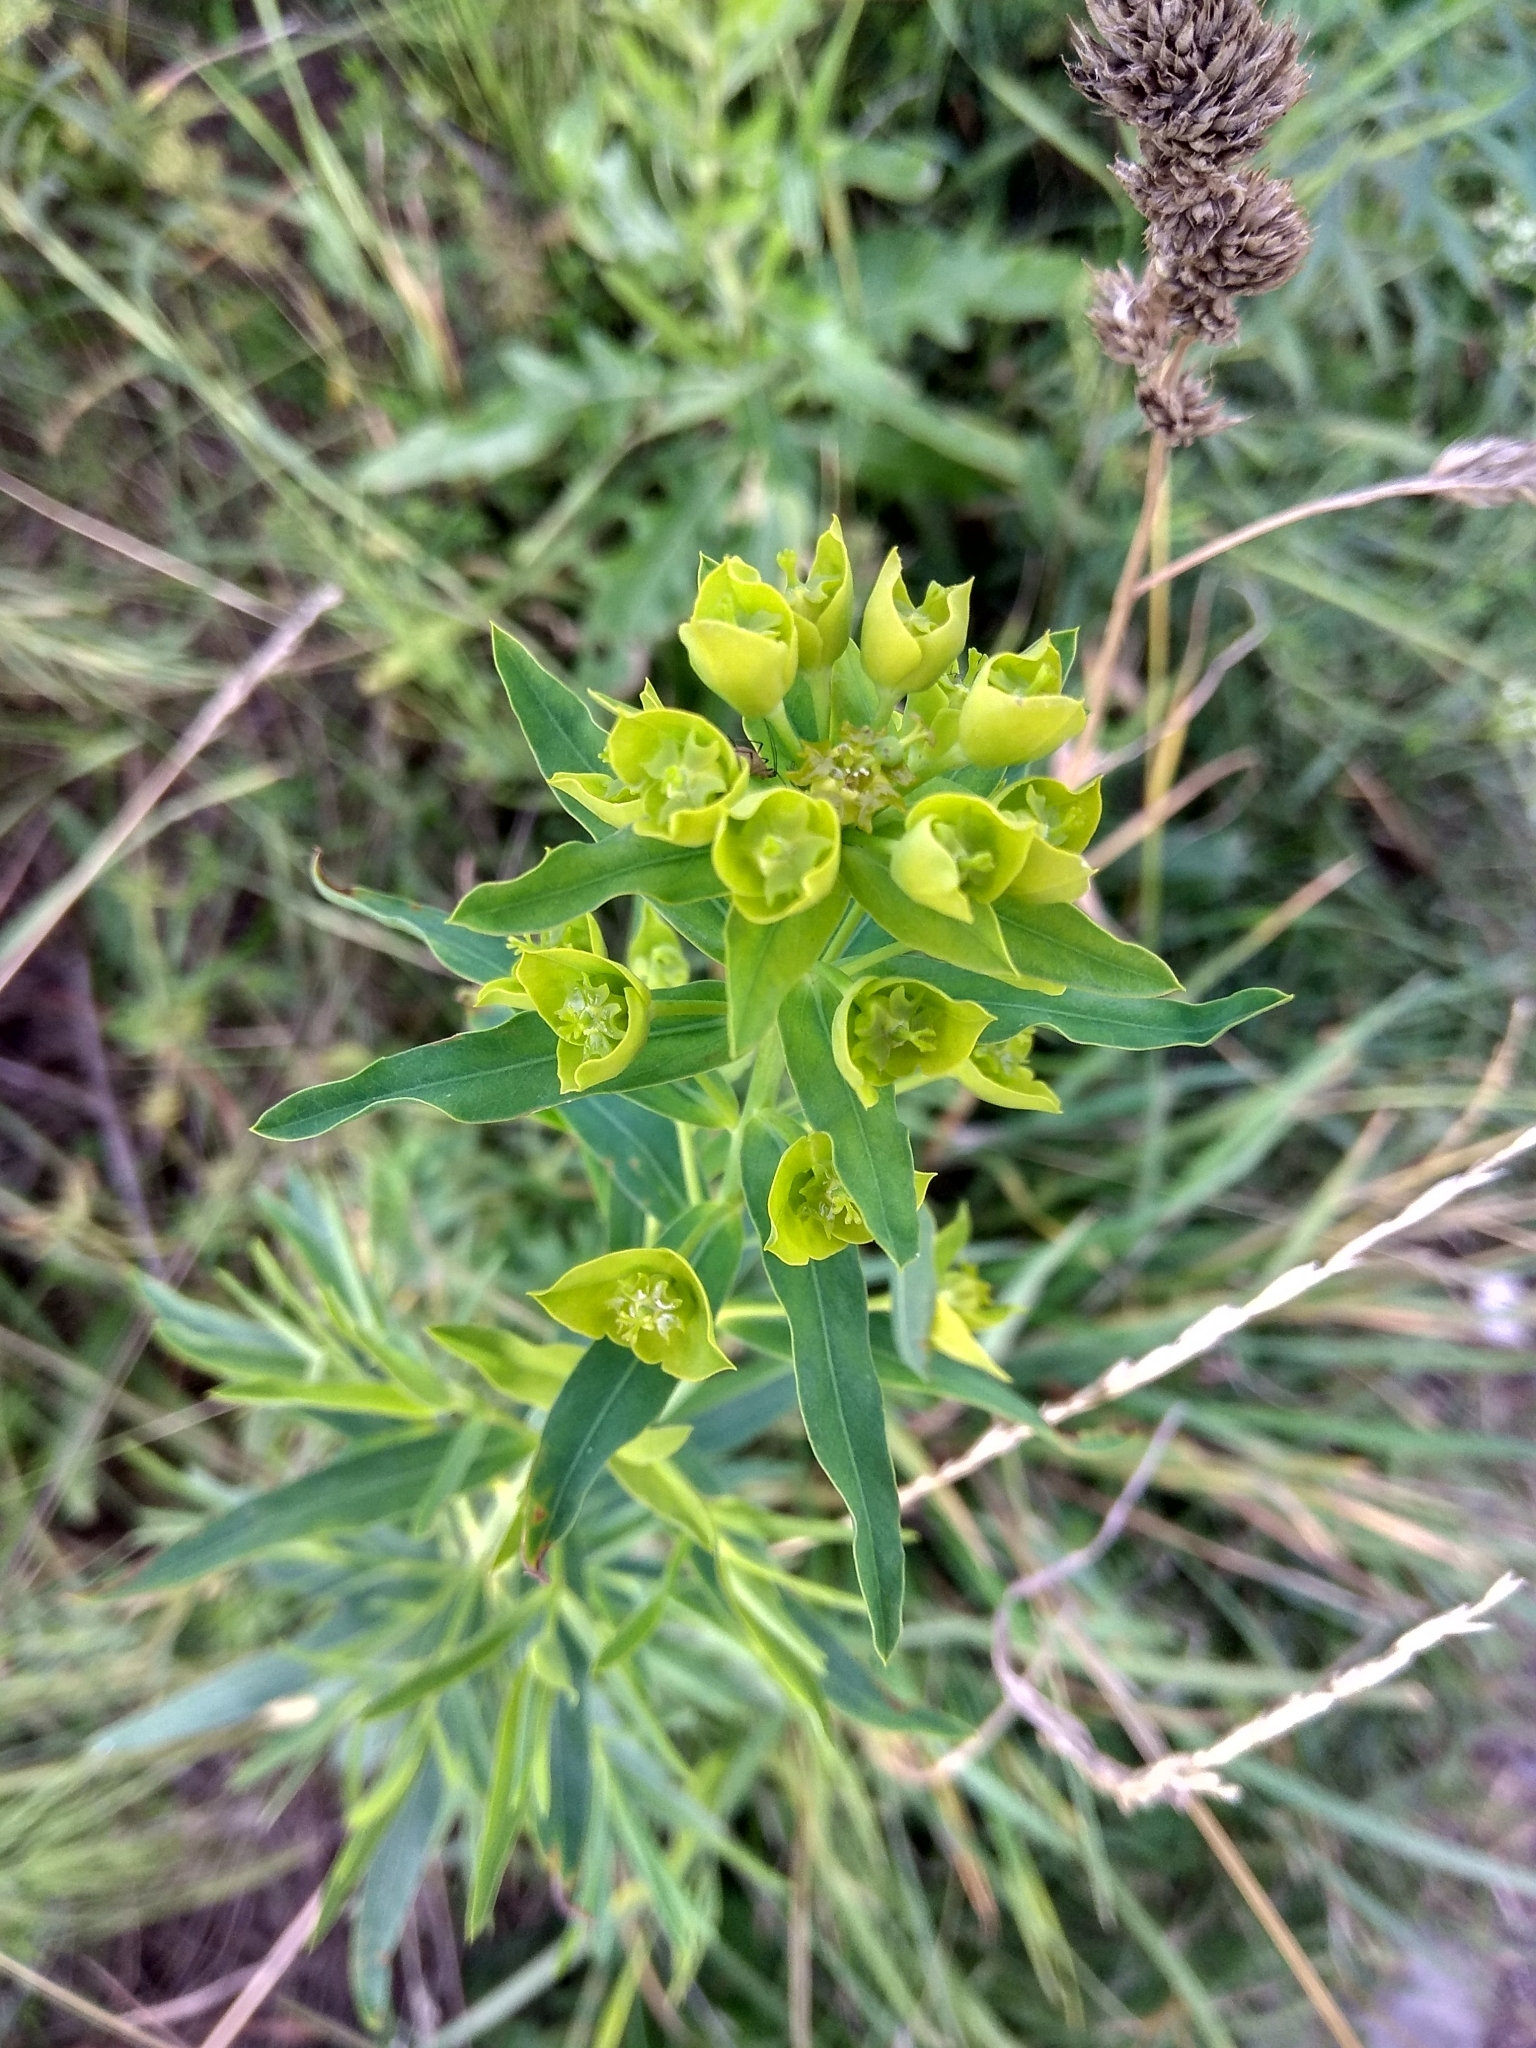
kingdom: Plantae
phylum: Tracheophyta
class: Magnoliopsida
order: Malpighiales
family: Euphorbiaceae
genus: Euphorbia
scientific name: Euphorbia virgata
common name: Leafy spurge
